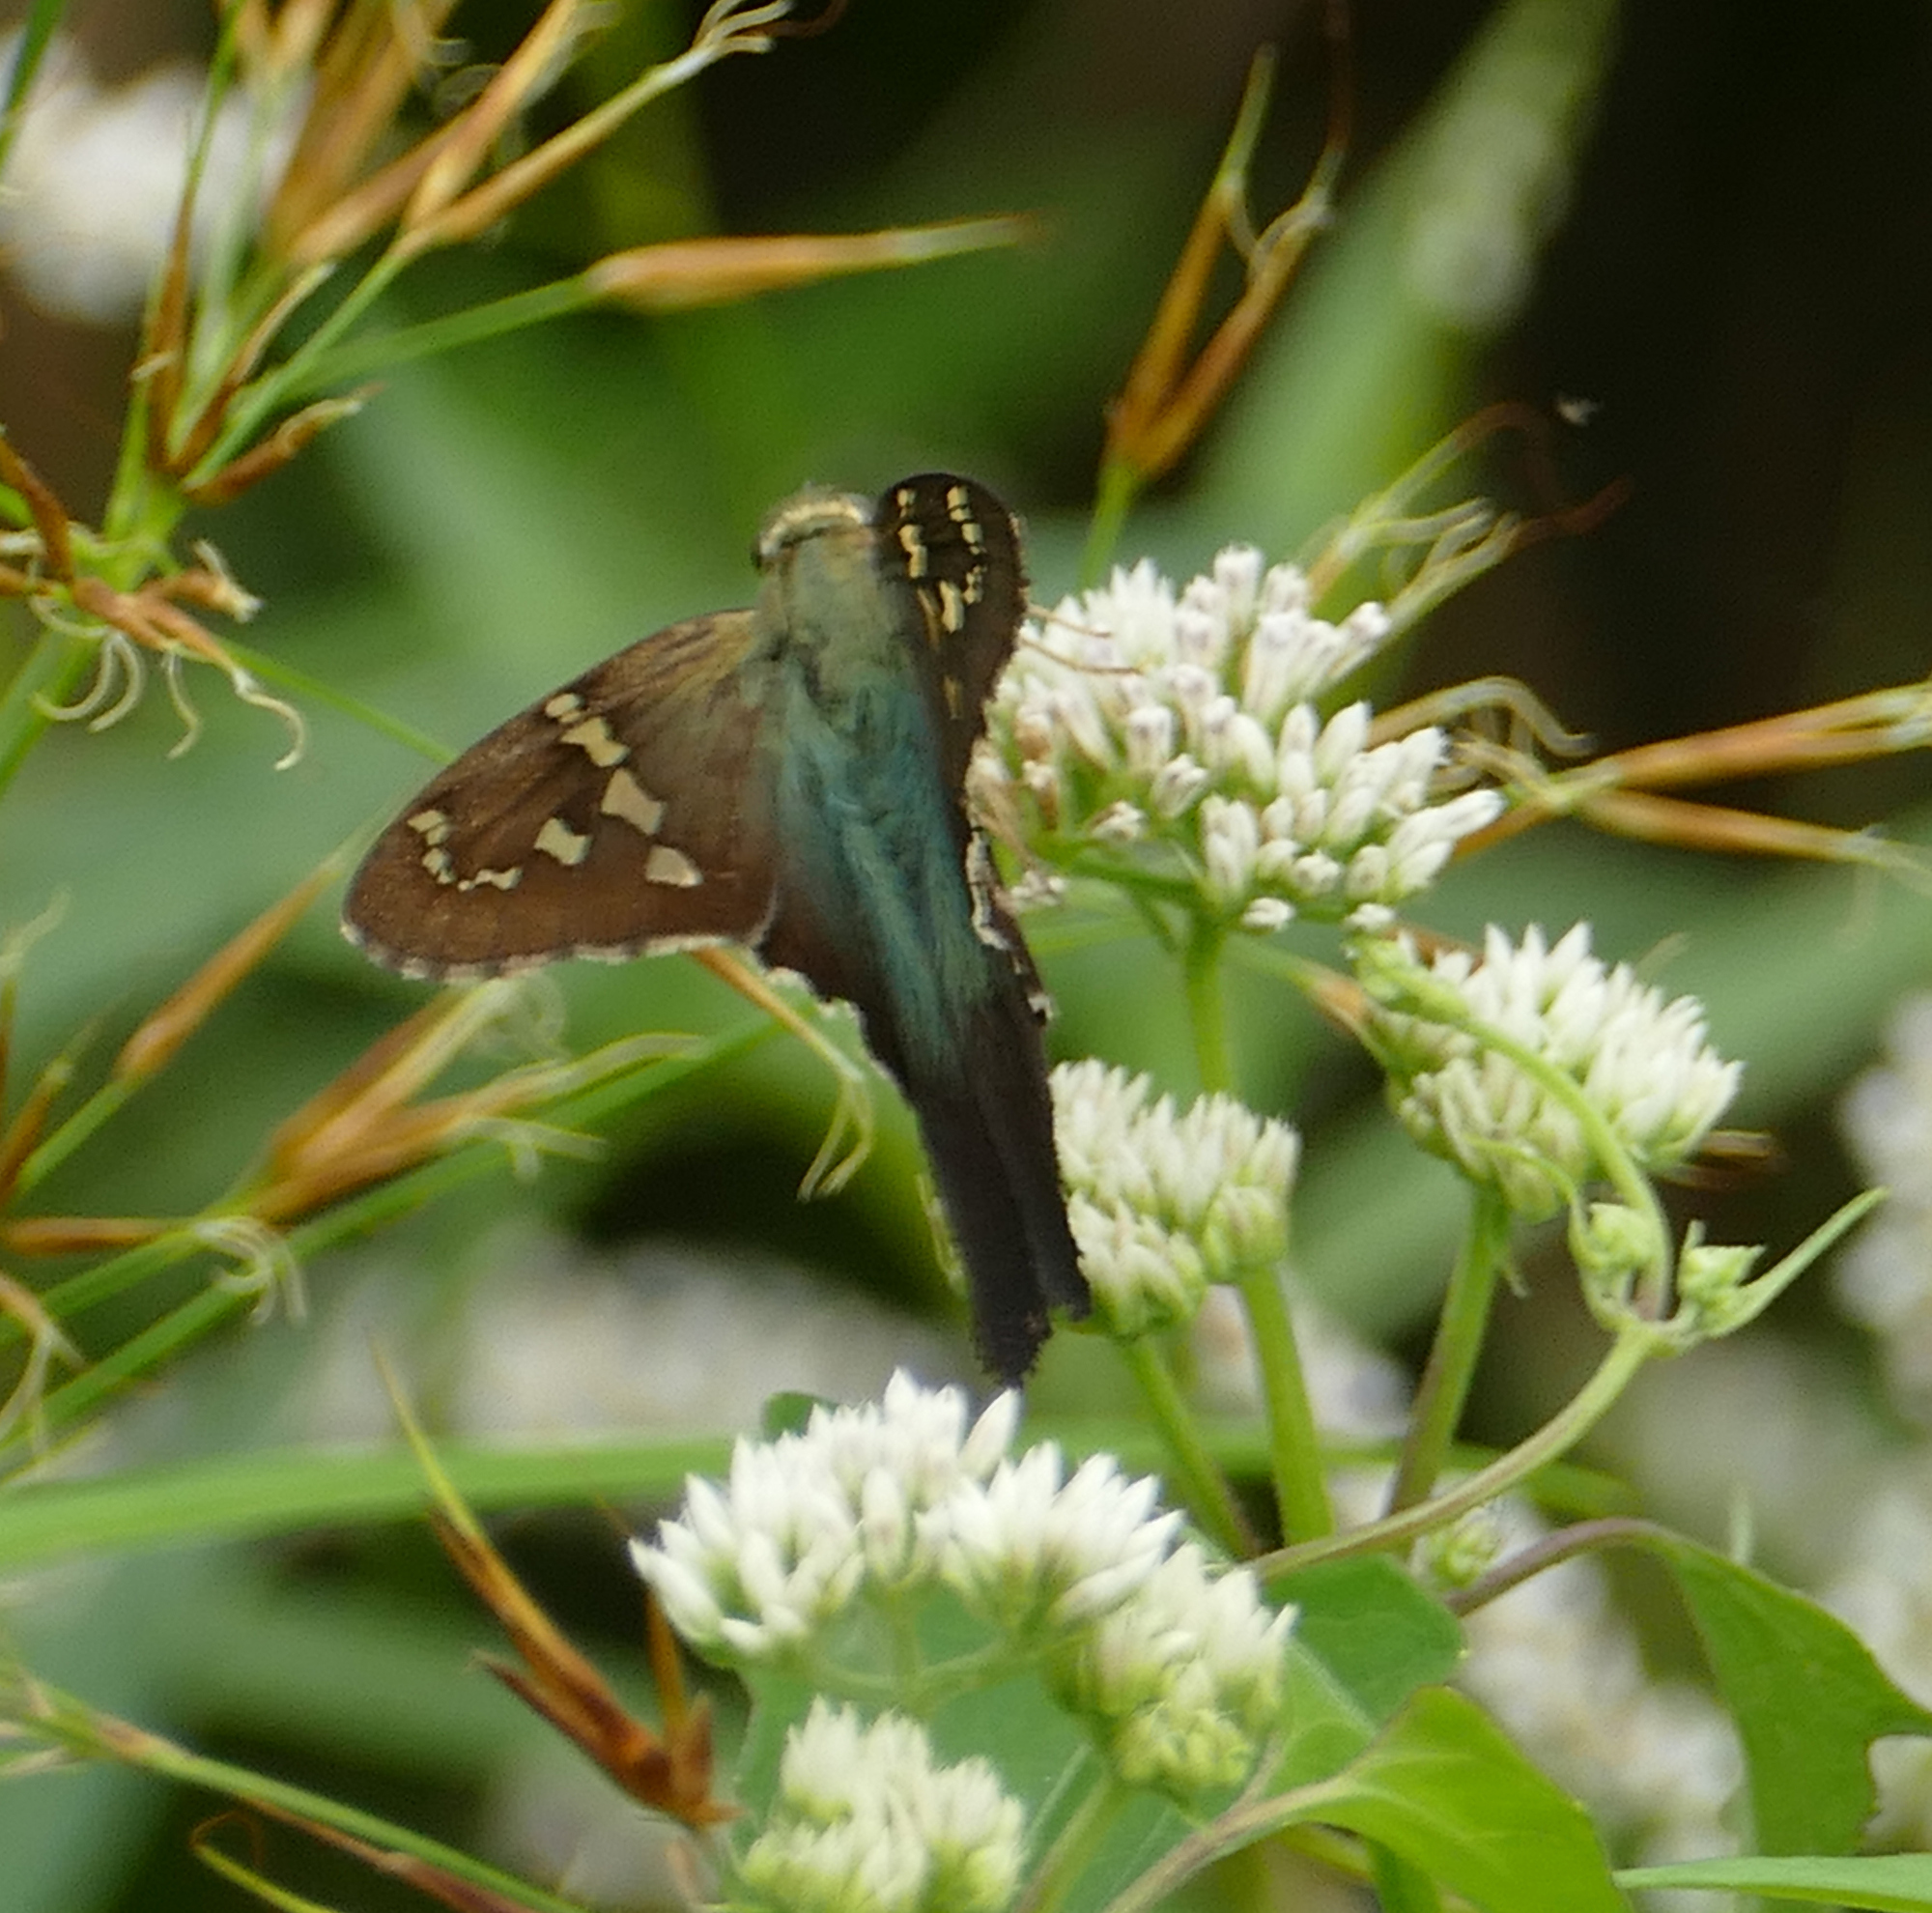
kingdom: Animalia
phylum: Arthropoda
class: Insecta
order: Lepidoptera
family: Hesperiidae
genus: Urbanus
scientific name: Urbanus proteus
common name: Long-tailed skipper
